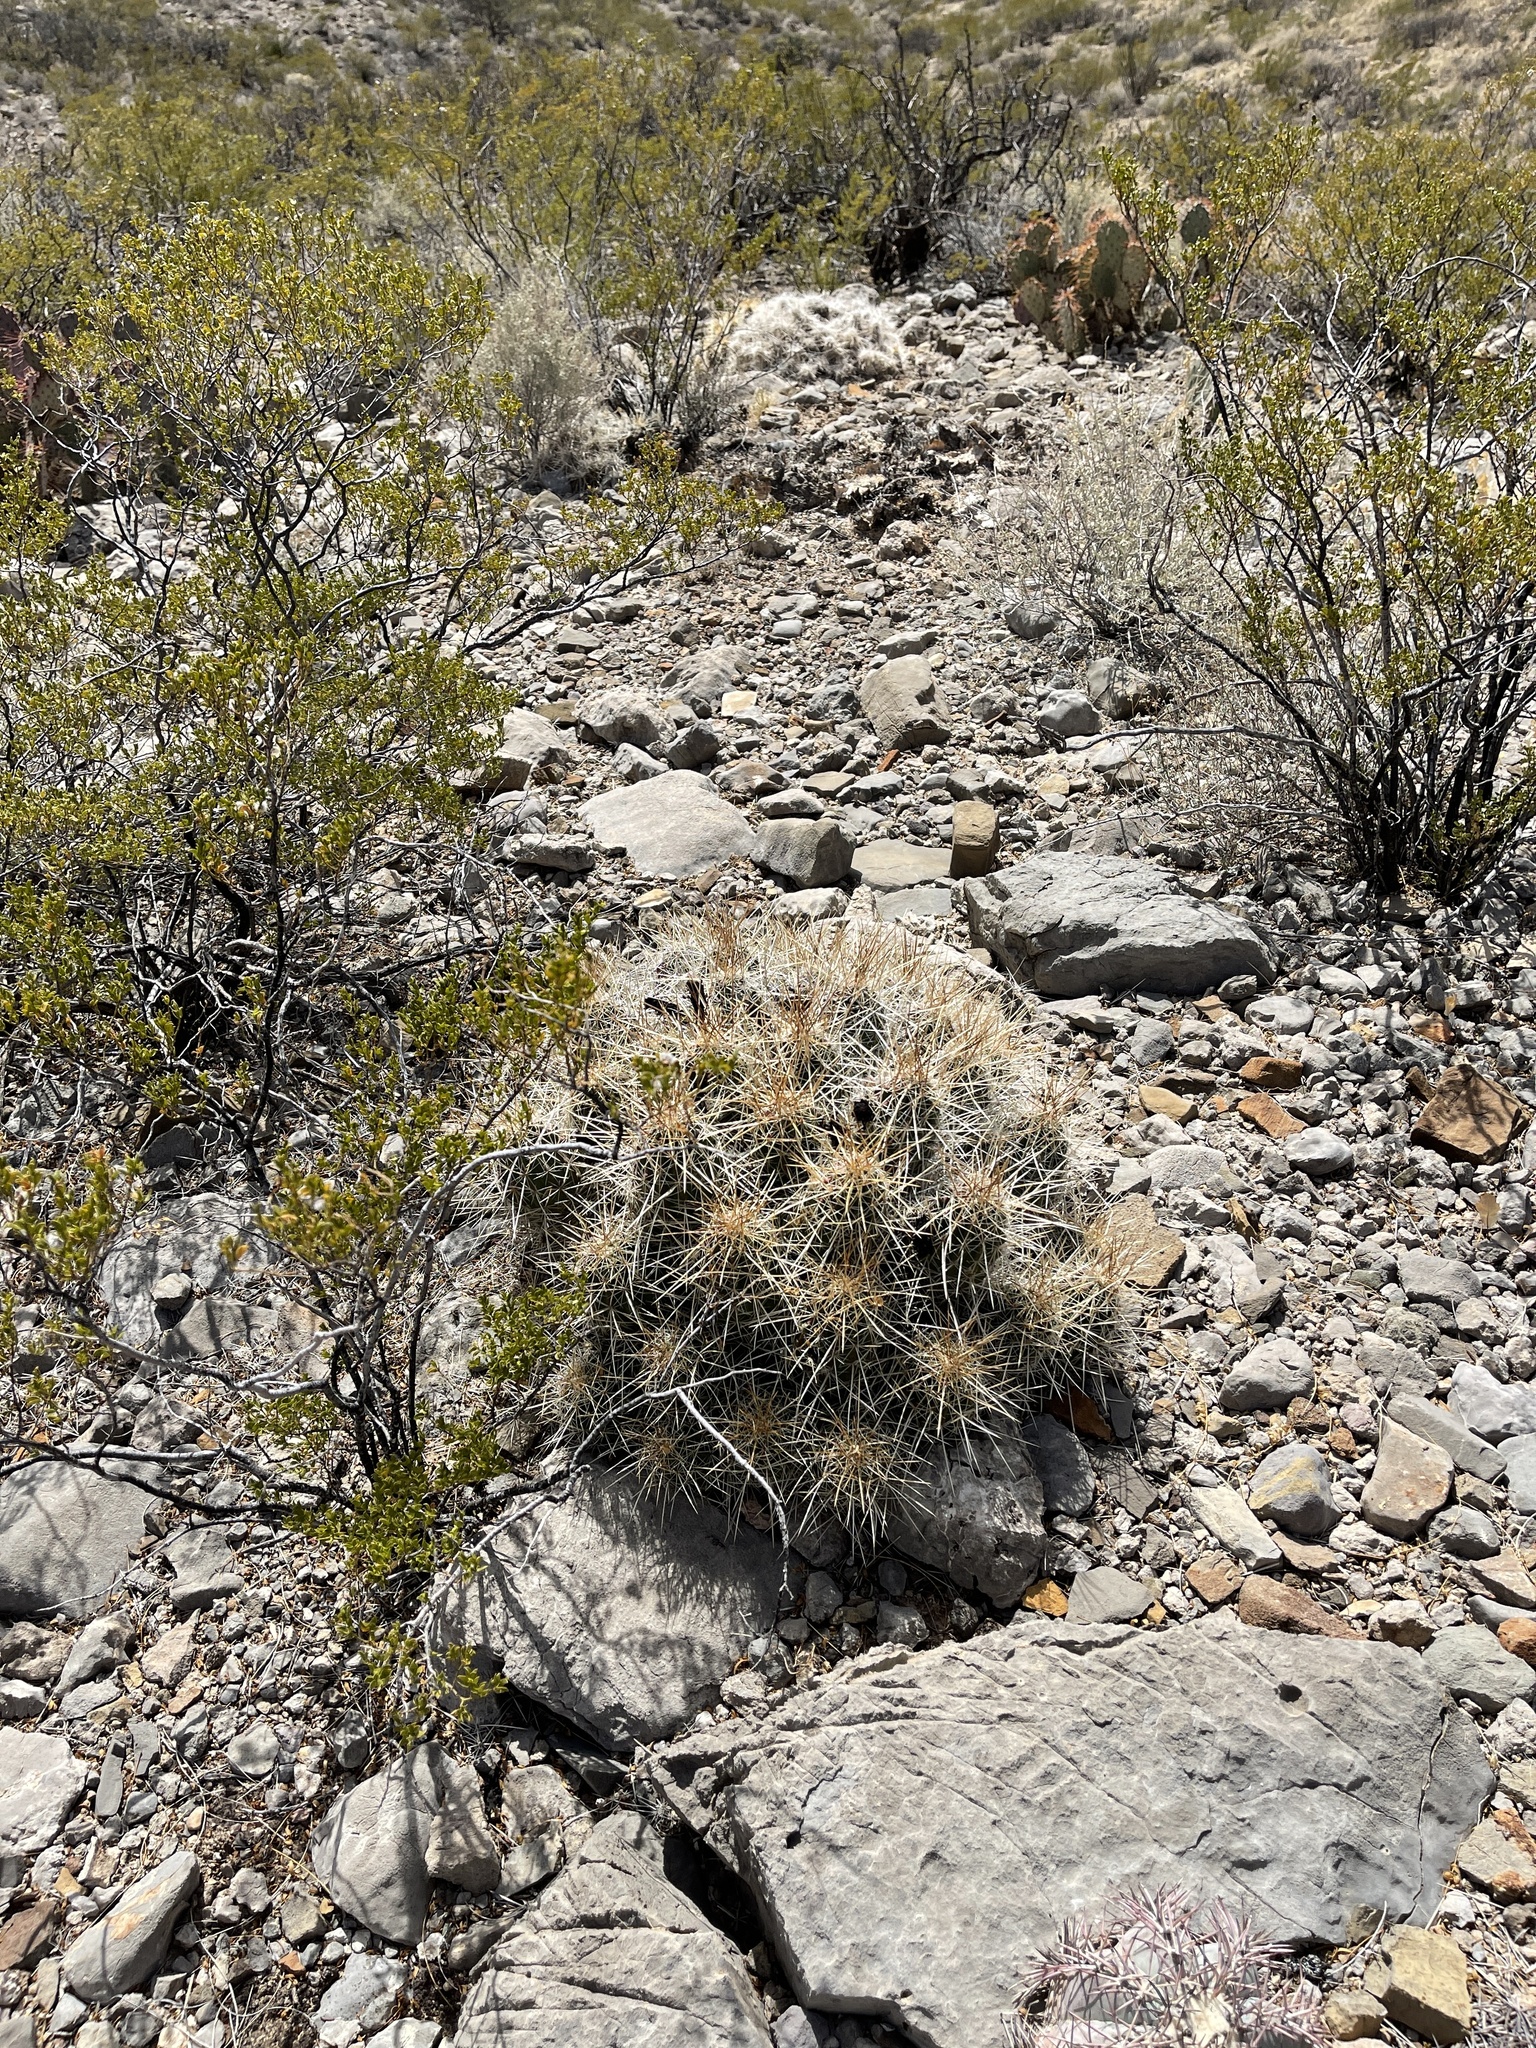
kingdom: Plantae
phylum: Tracheophyta
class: Magnoliopsida
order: Caryophyllales
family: Cactaceae
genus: Echinocereus
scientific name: Echinocereus stramineus
